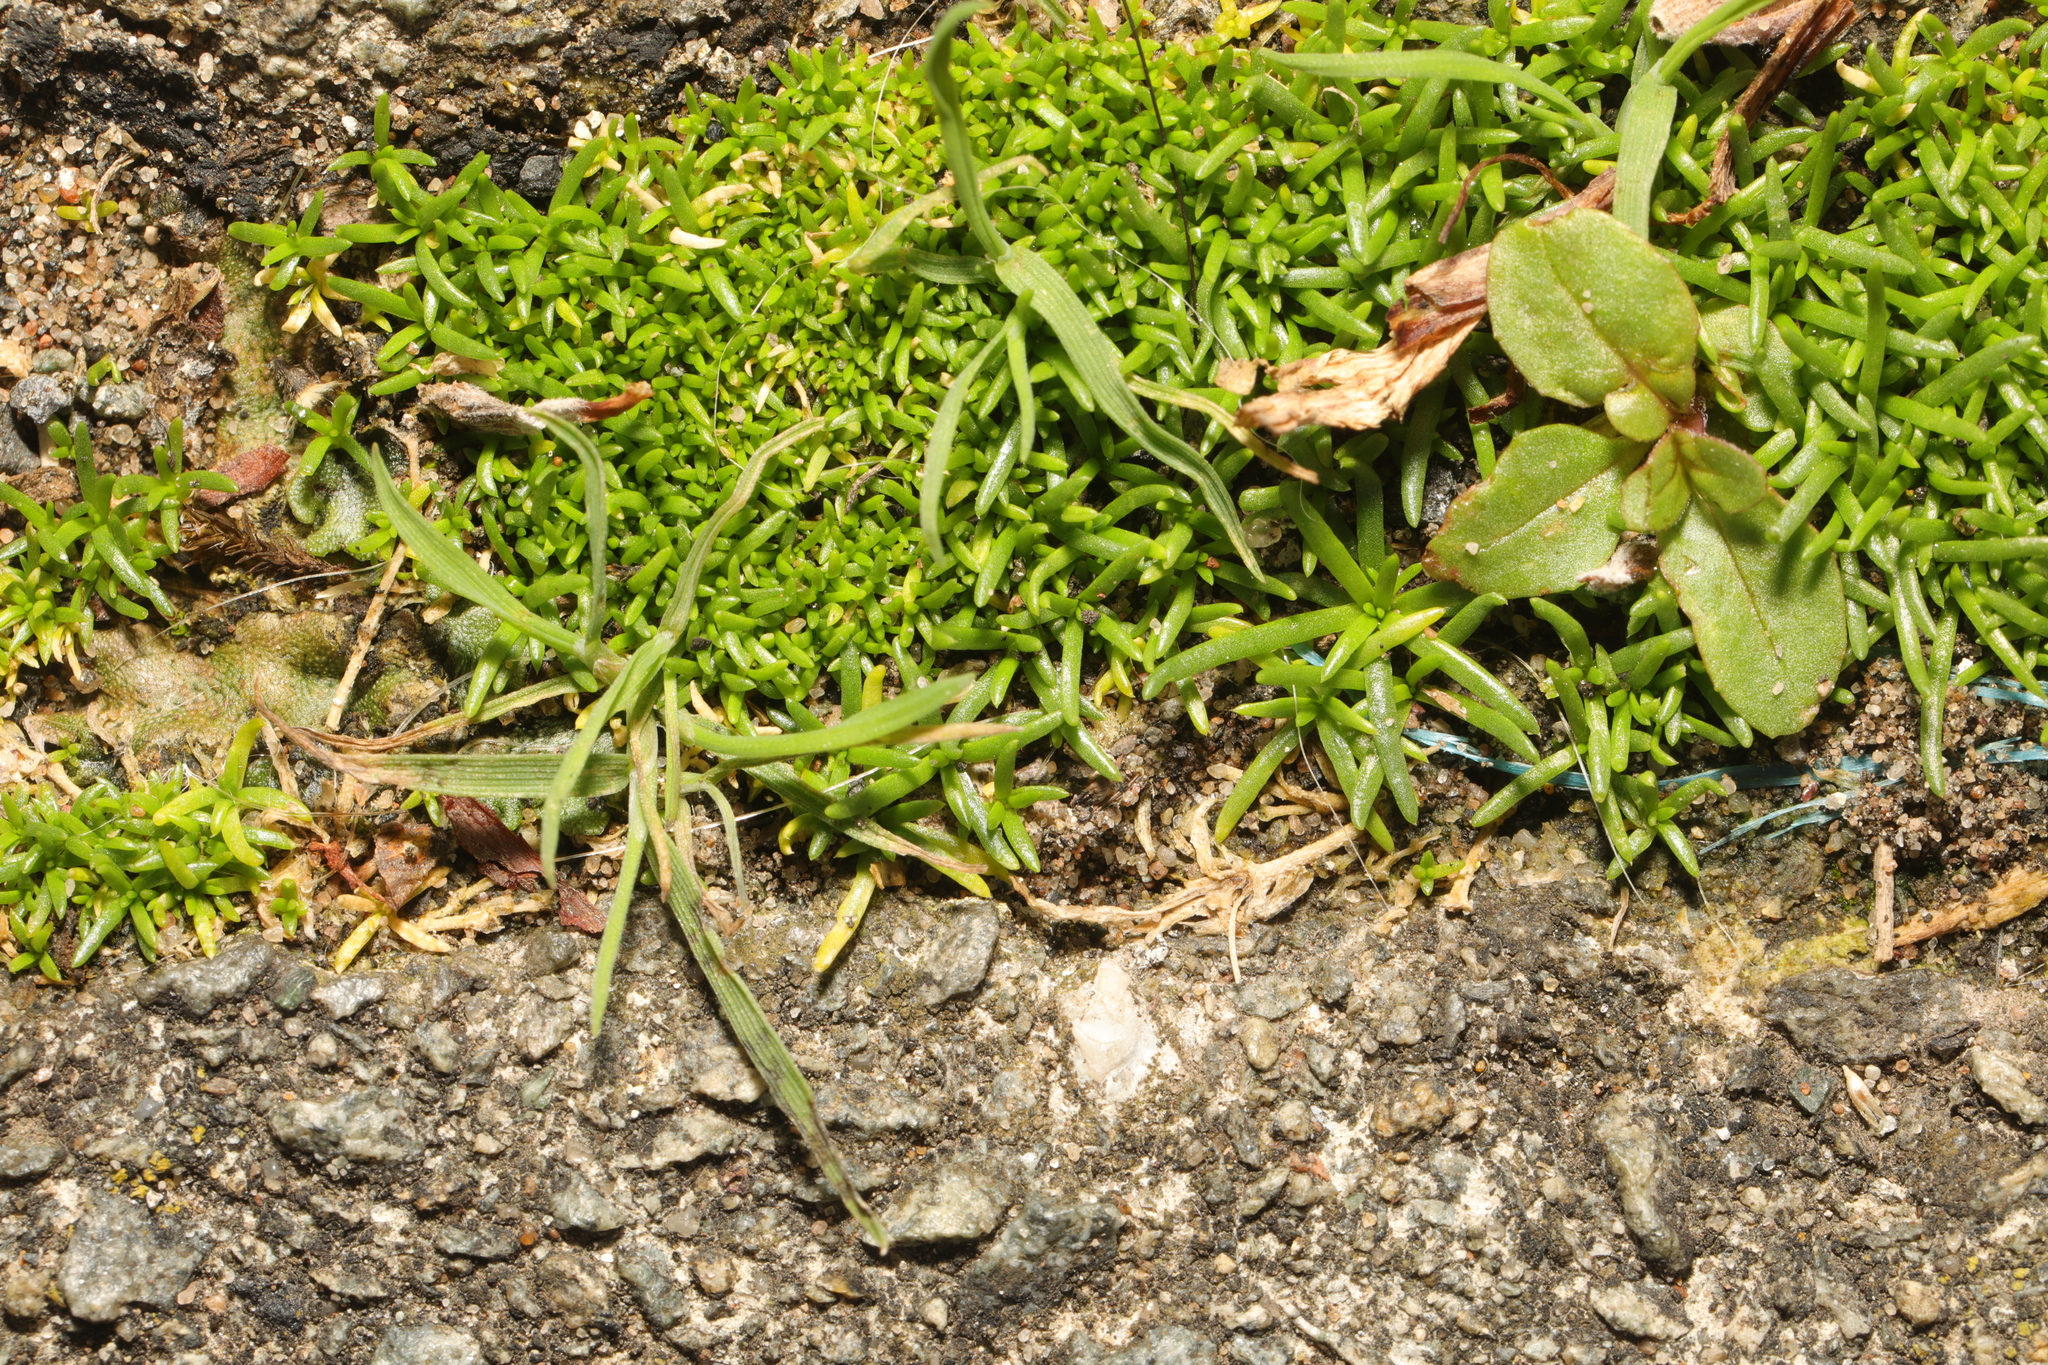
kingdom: Plantae
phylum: Tracheophyta
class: Magnoliopsida
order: Caryophyllales
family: Caryophyllaceae
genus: Sagina
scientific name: Sagina procumbens
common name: Procumbent pearlwort
